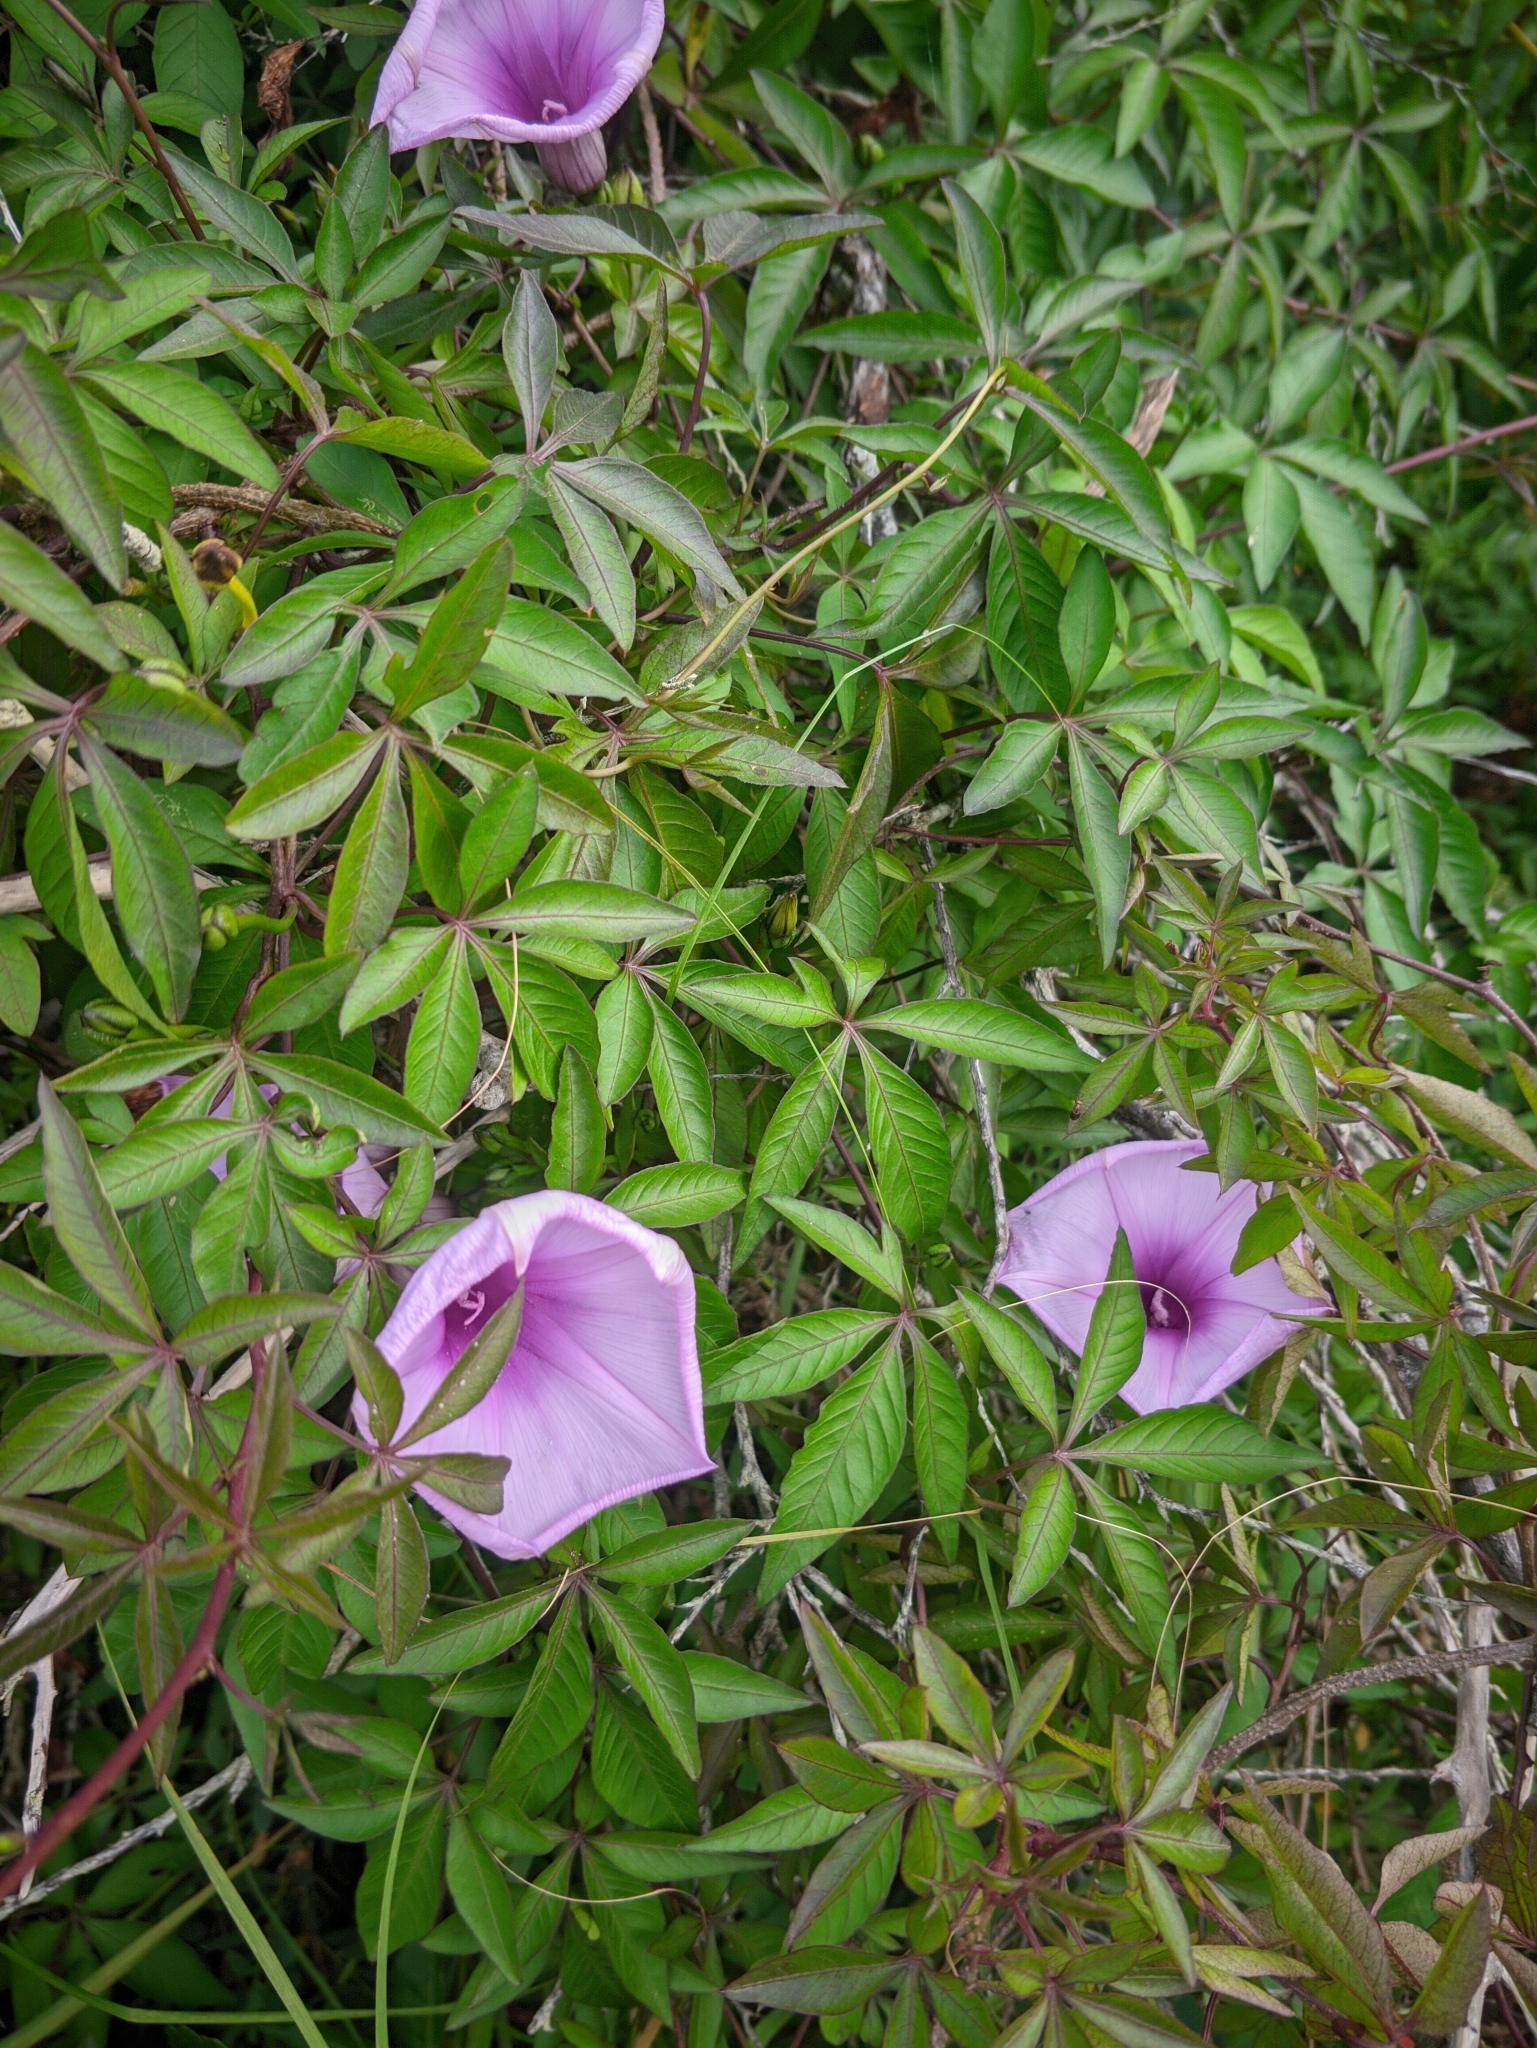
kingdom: Plantae
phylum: Tracheophyta
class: Magnoliopsida
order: Solanales
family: Convolvulaceae
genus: Ipomoea
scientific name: Ipomoea cairica
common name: Mile a minute vine
